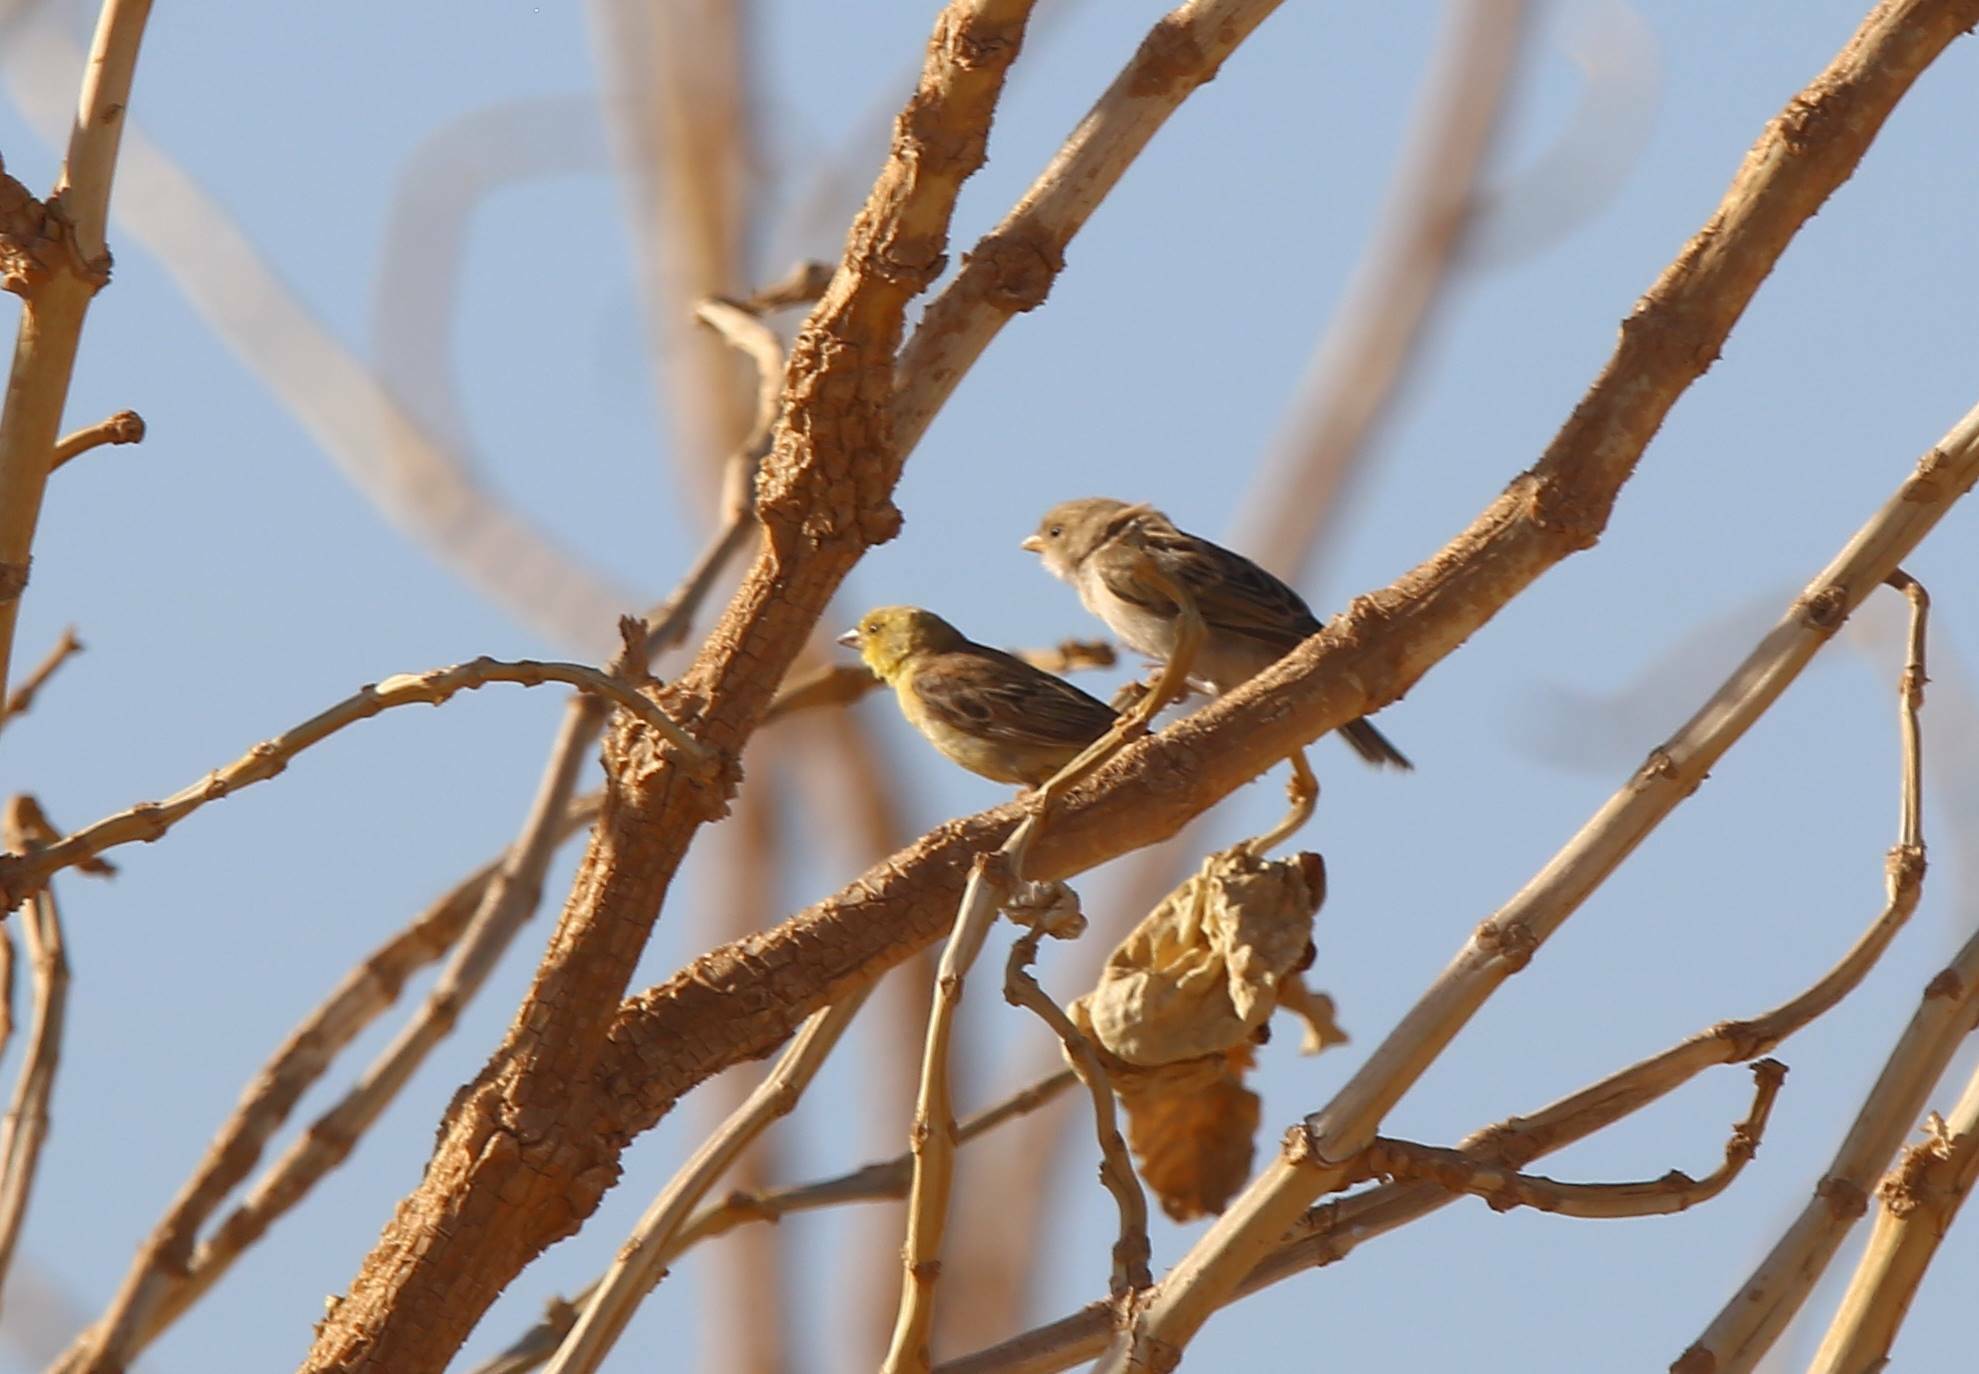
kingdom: Animalia
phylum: Chordata
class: Aves
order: Passeriformes
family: Passeridae
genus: Passer
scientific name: Passer luteus
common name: Sudan golden sparrow
